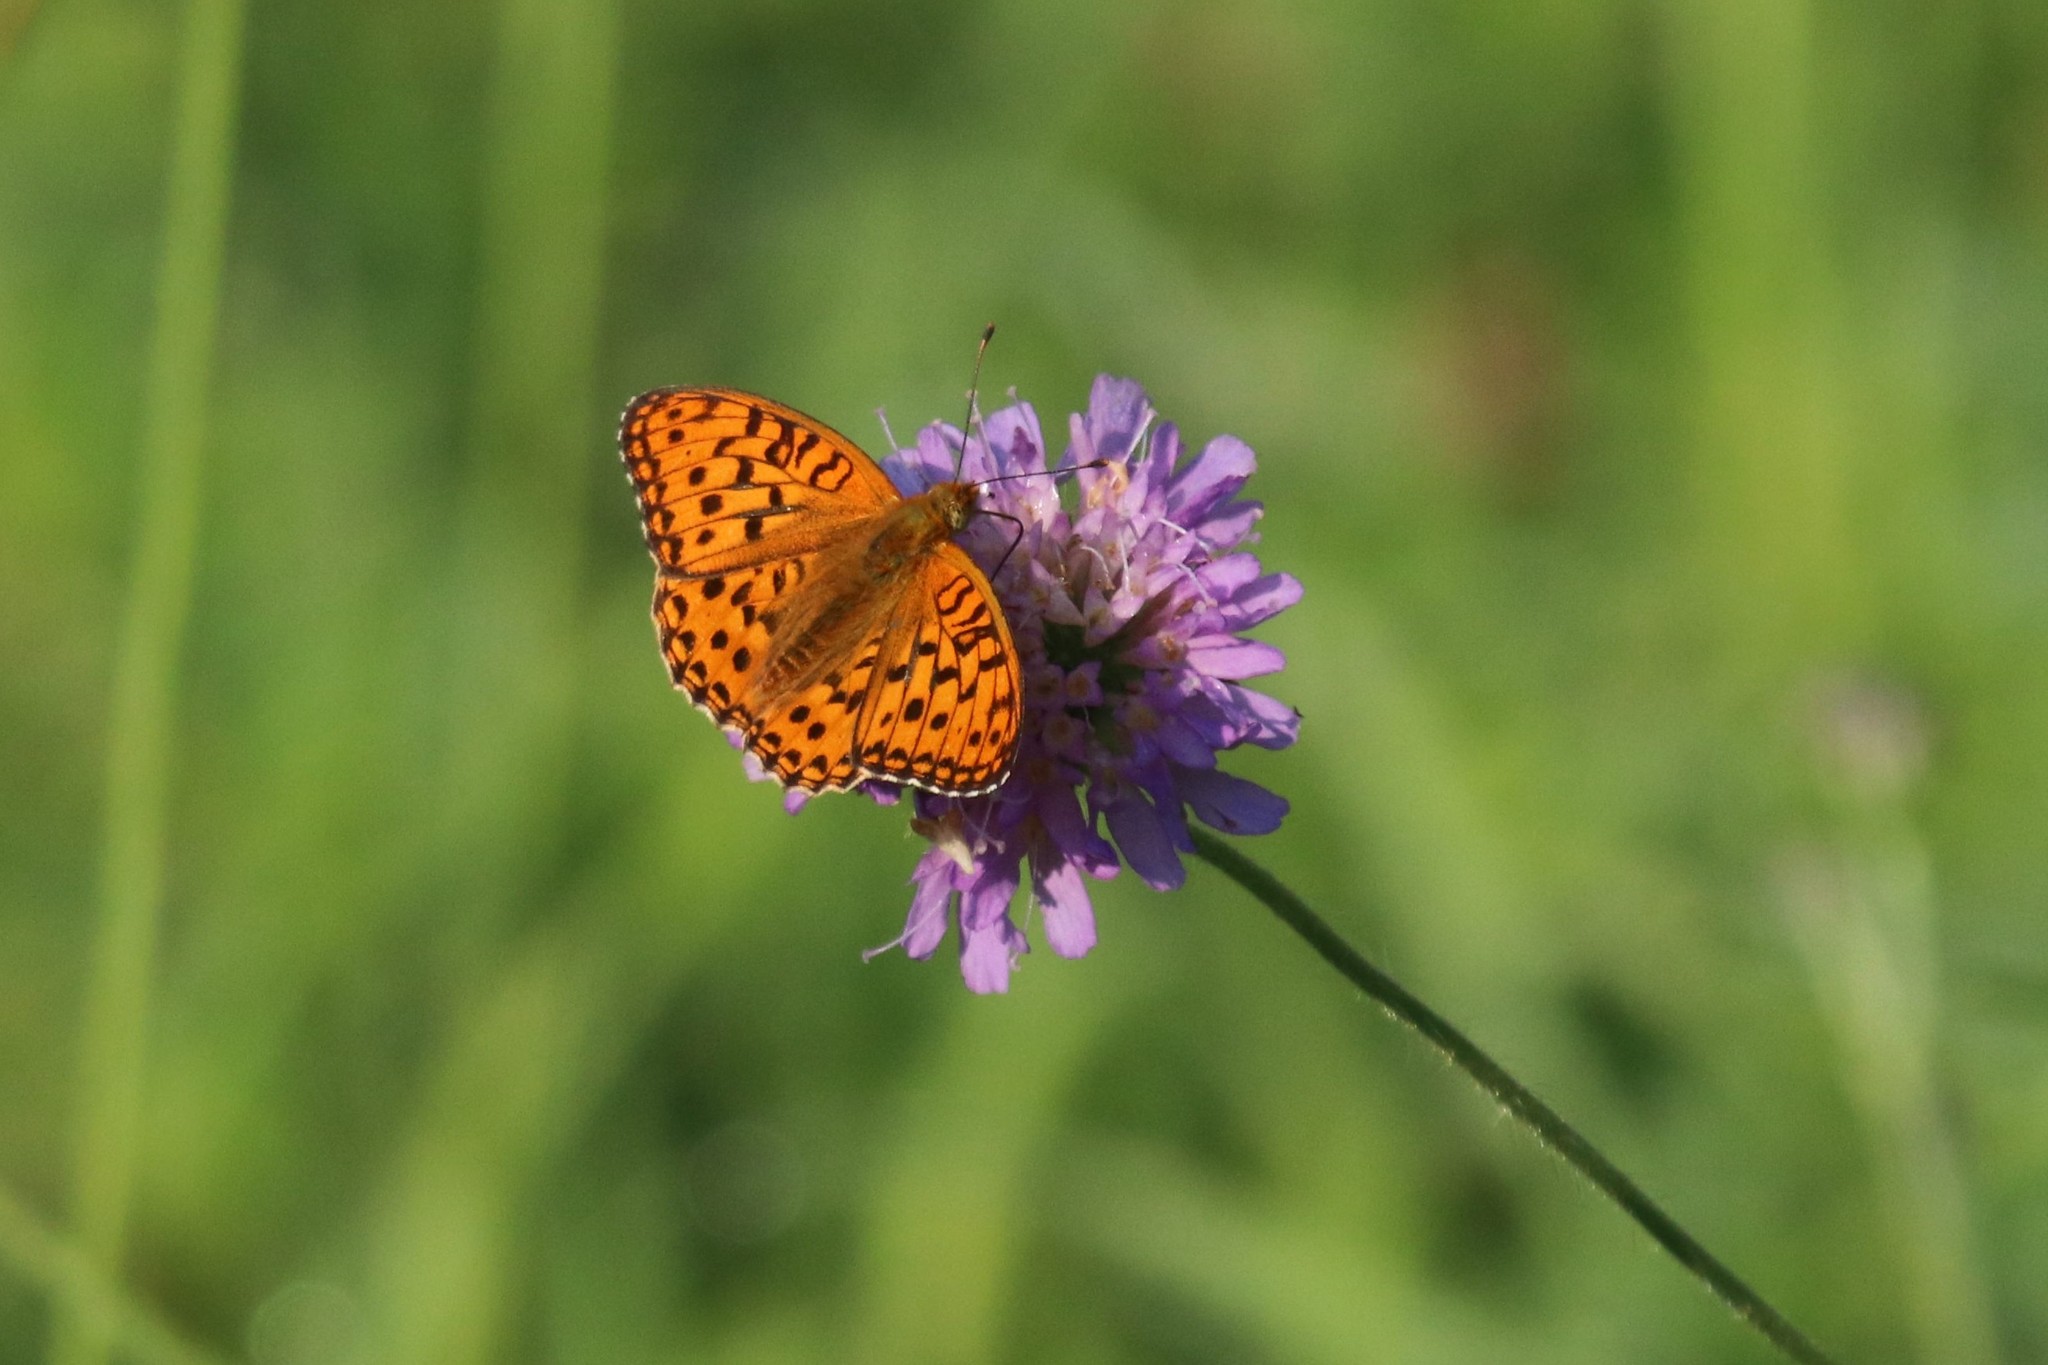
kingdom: Animalia
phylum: Arthropoda
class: Insecta
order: Lepidoptera
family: Nymphalidae
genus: Fabriciana
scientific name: Fabriciana adippe
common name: High brown fritillary
